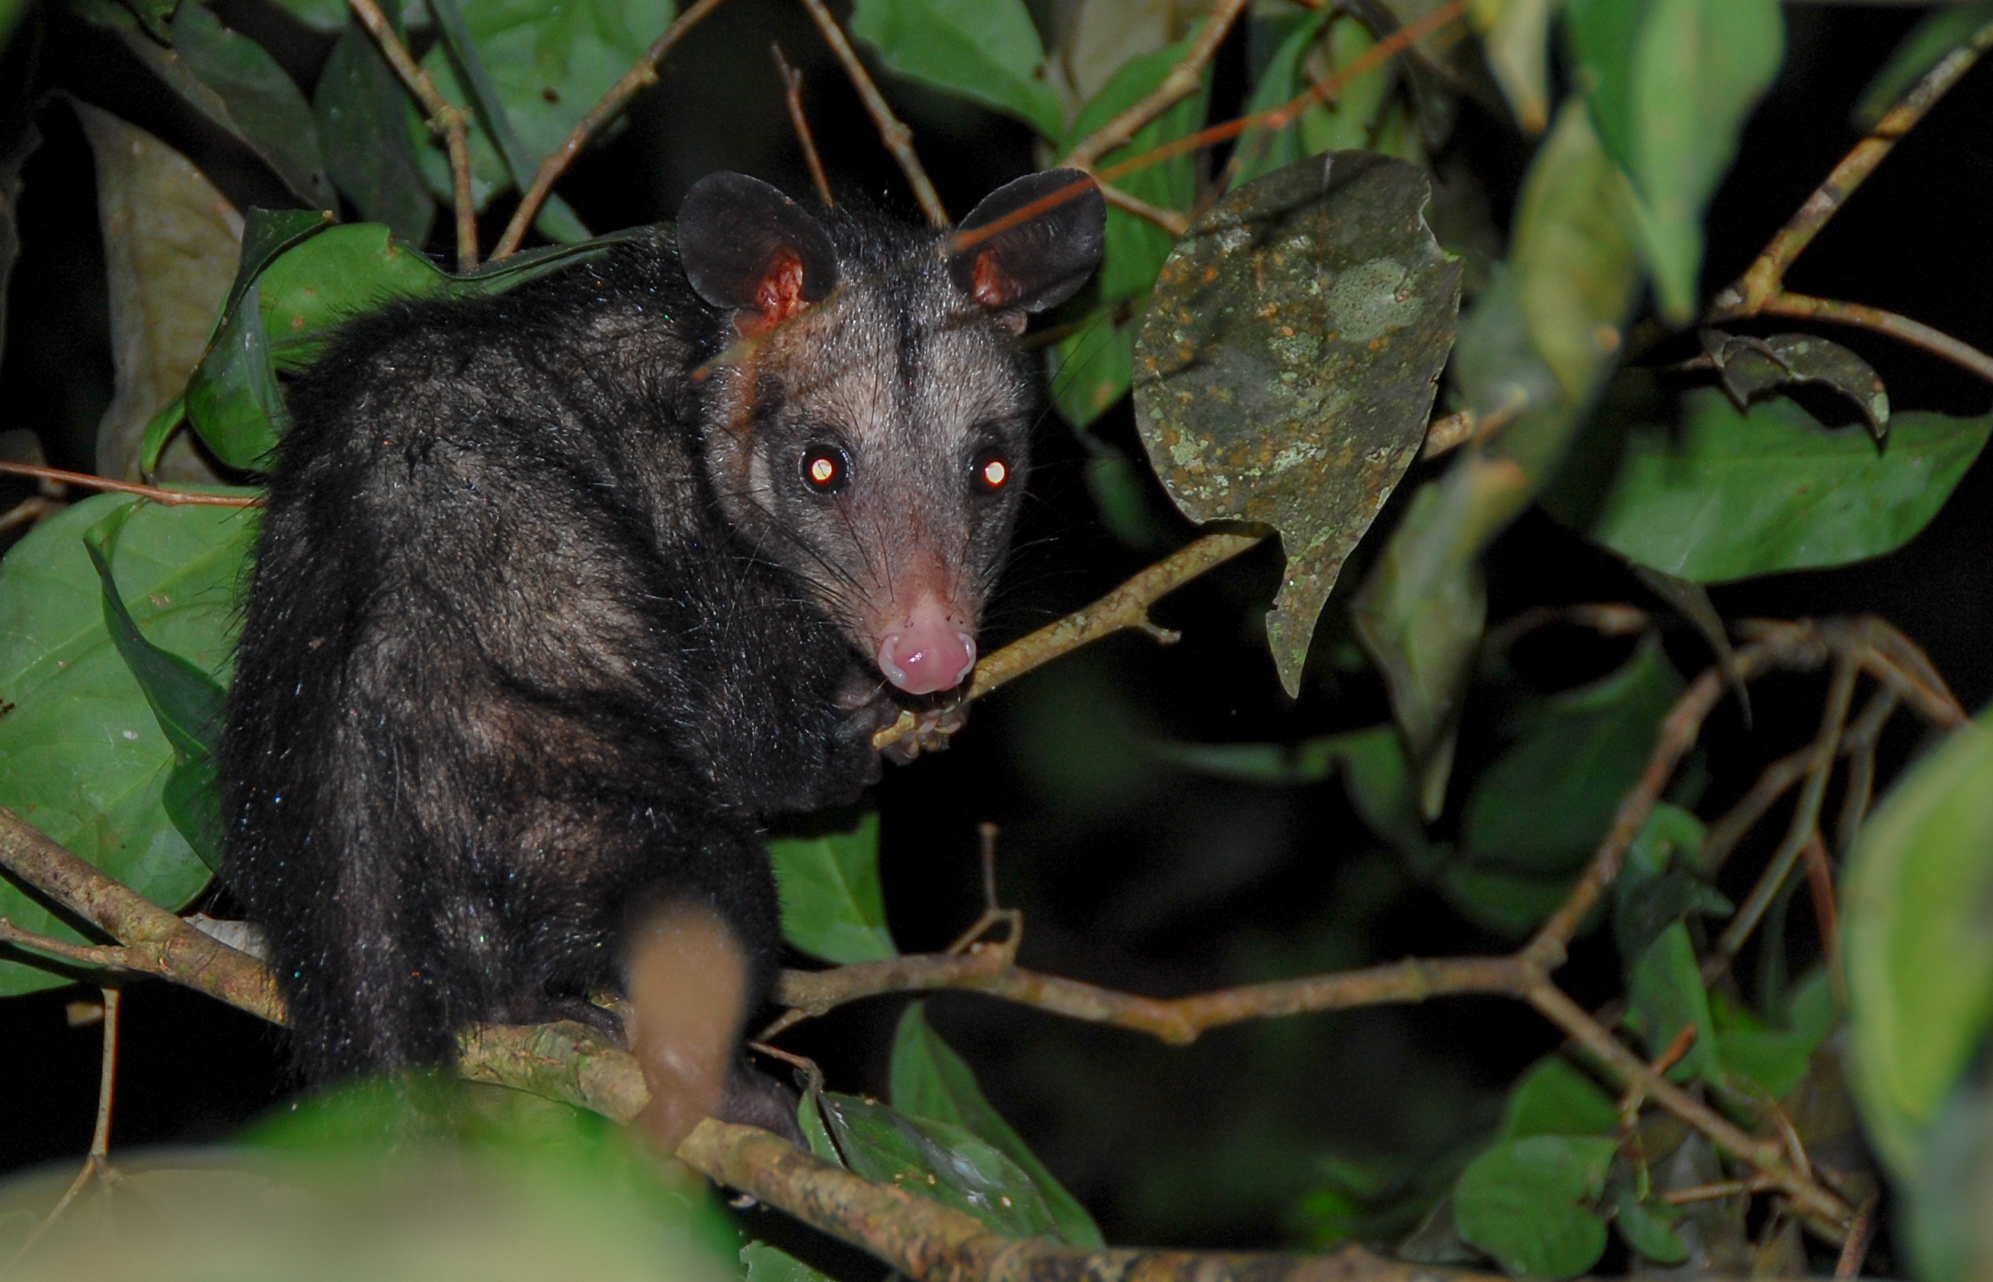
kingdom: Animalia
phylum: Chordata
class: Mammalia
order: Didelphimorphia
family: Didelphidae
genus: Didelphis
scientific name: Didelphis marsupialis
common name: Common opossum
